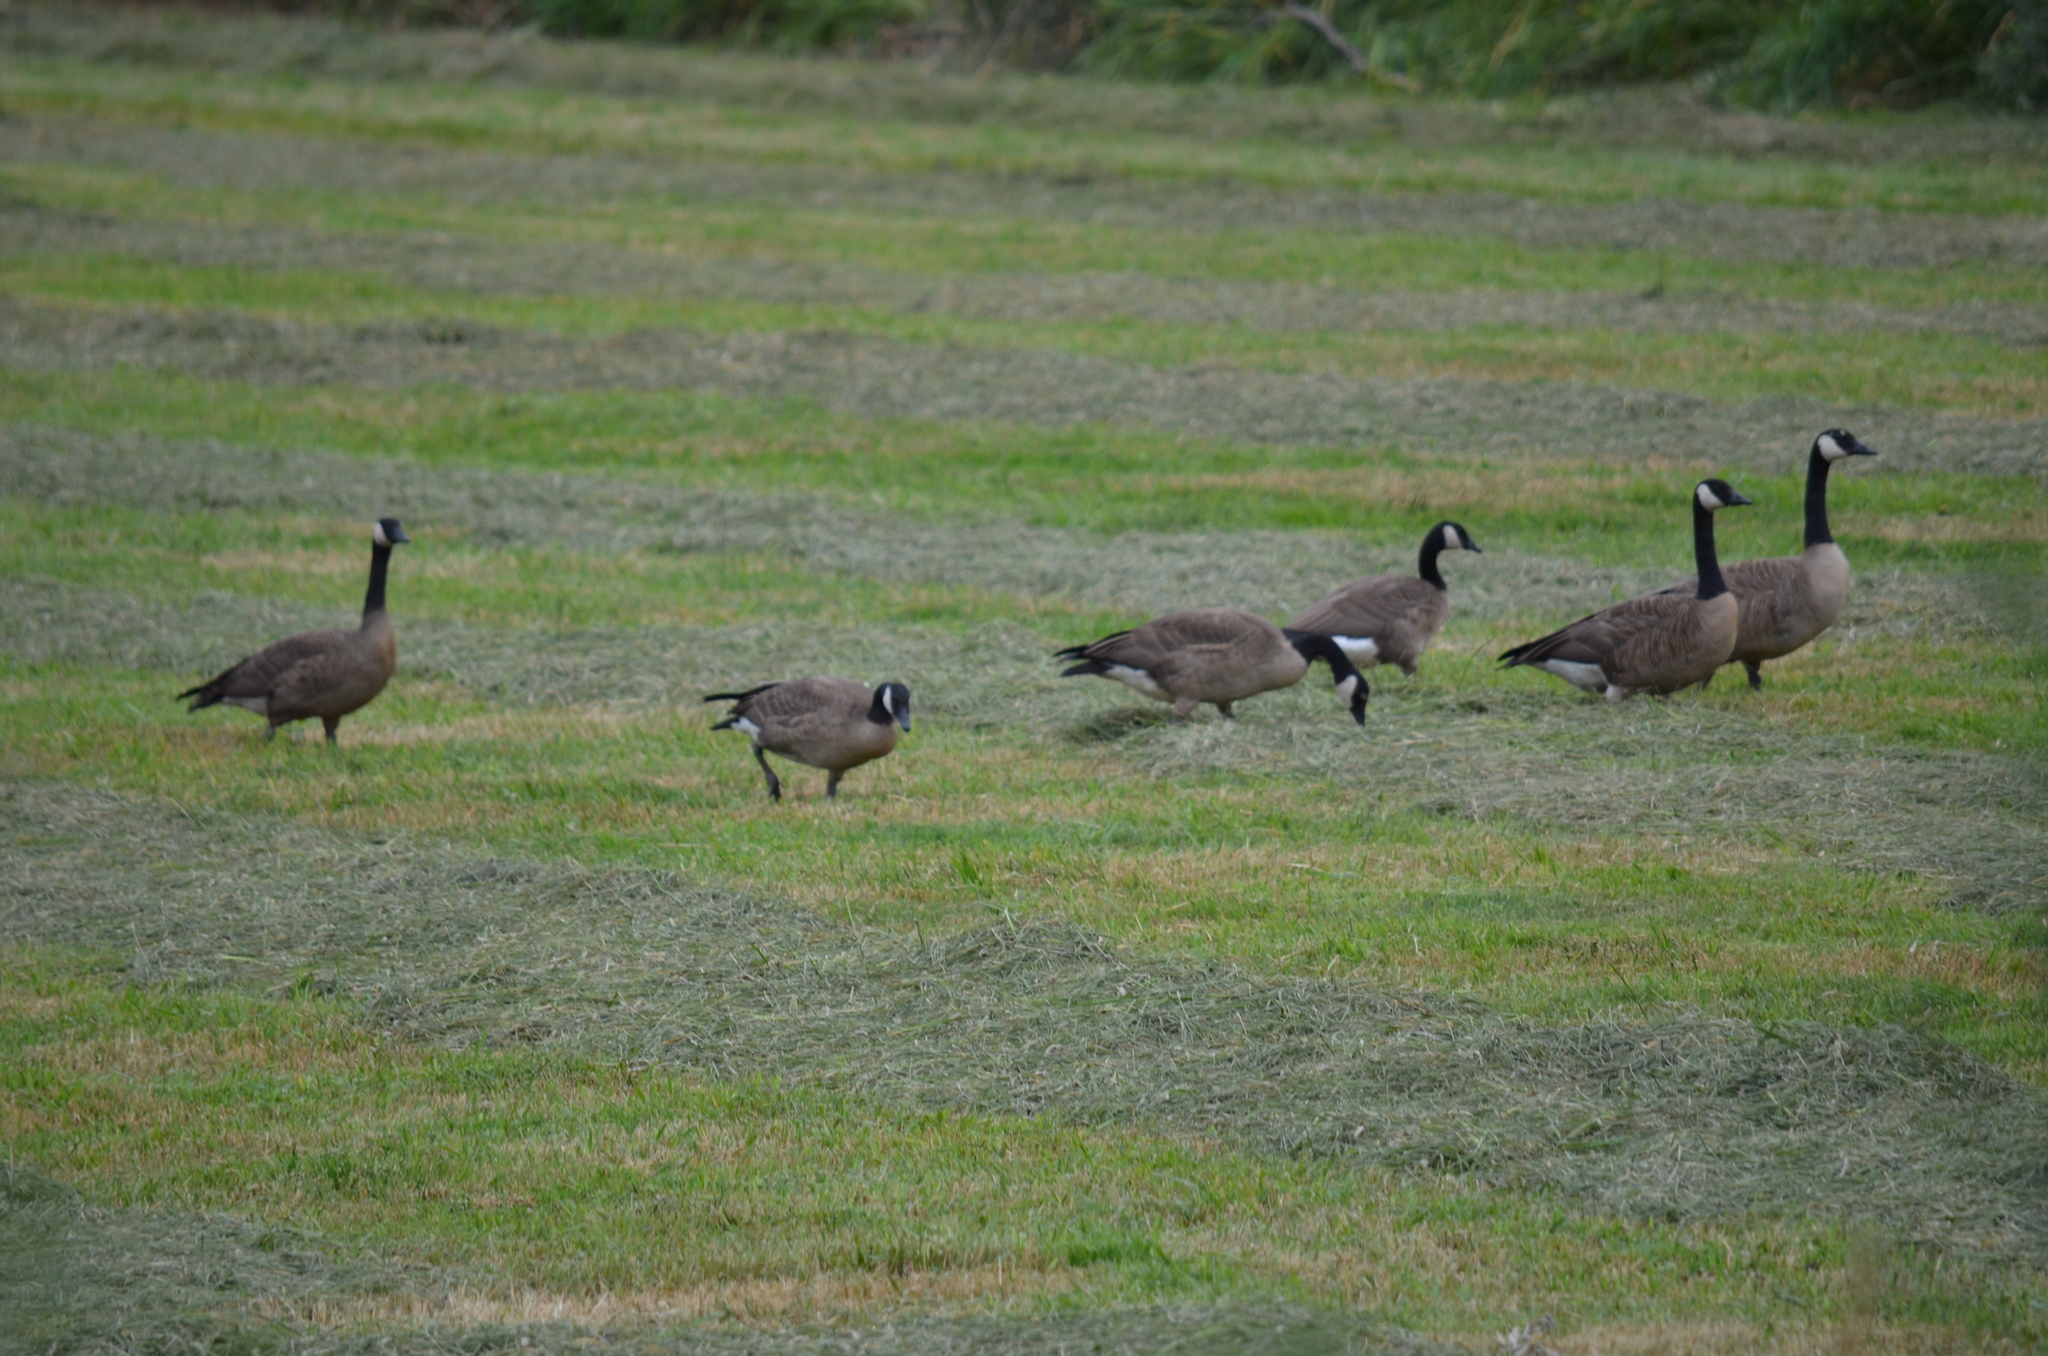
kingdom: Animalia
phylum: Chordata
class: Aves
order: Anseriformes
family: Anatidae
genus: Branta
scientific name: Branta canadensis
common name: Canada goose
